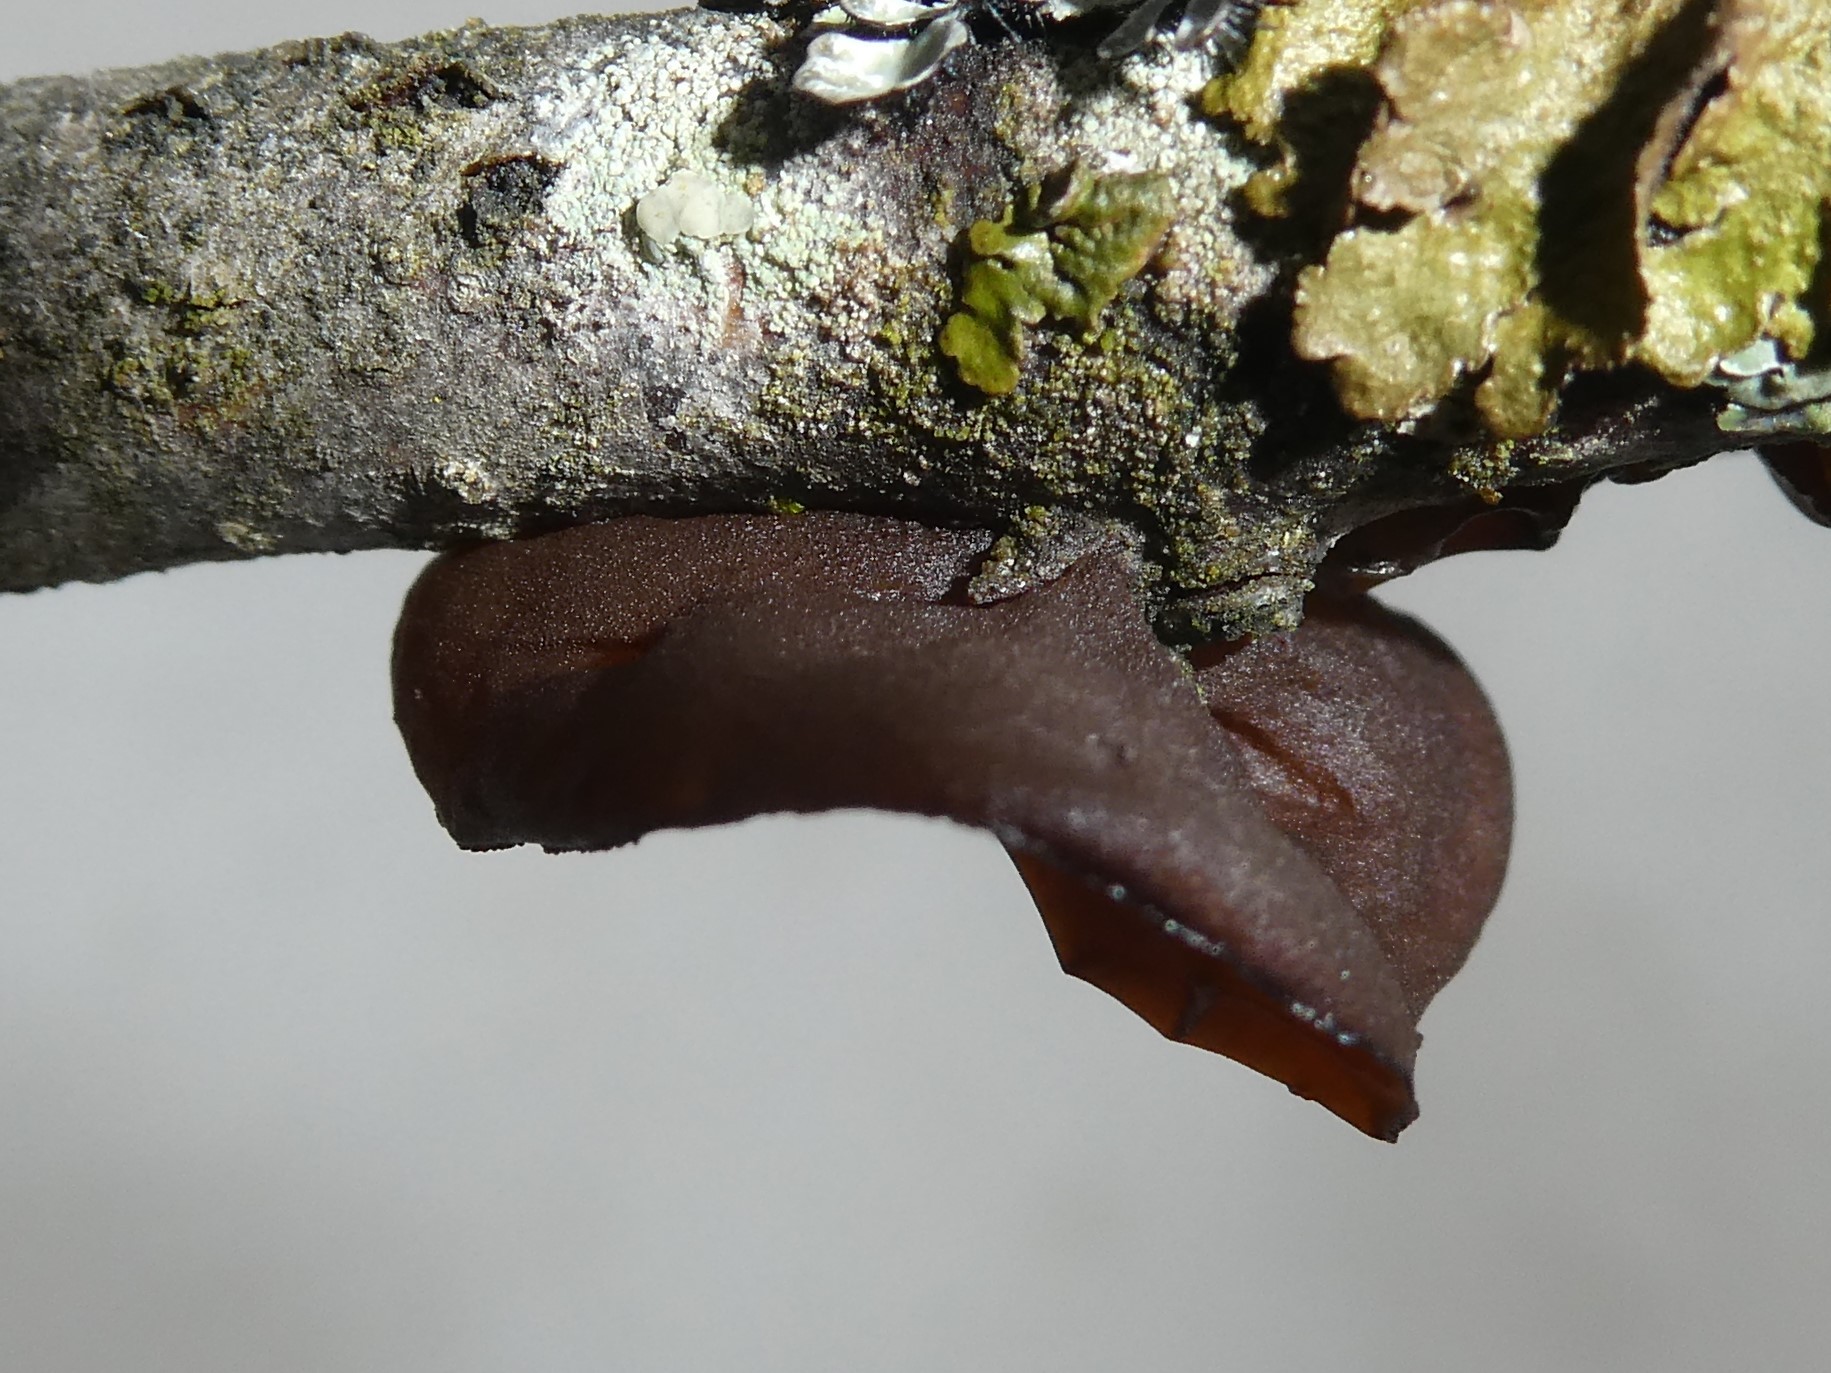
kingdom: Fungi
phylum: Basidiomycota
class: Agaricomycetes
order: Auriculariales
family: Auriculariaceae
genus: Exidia
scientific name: Exidia
